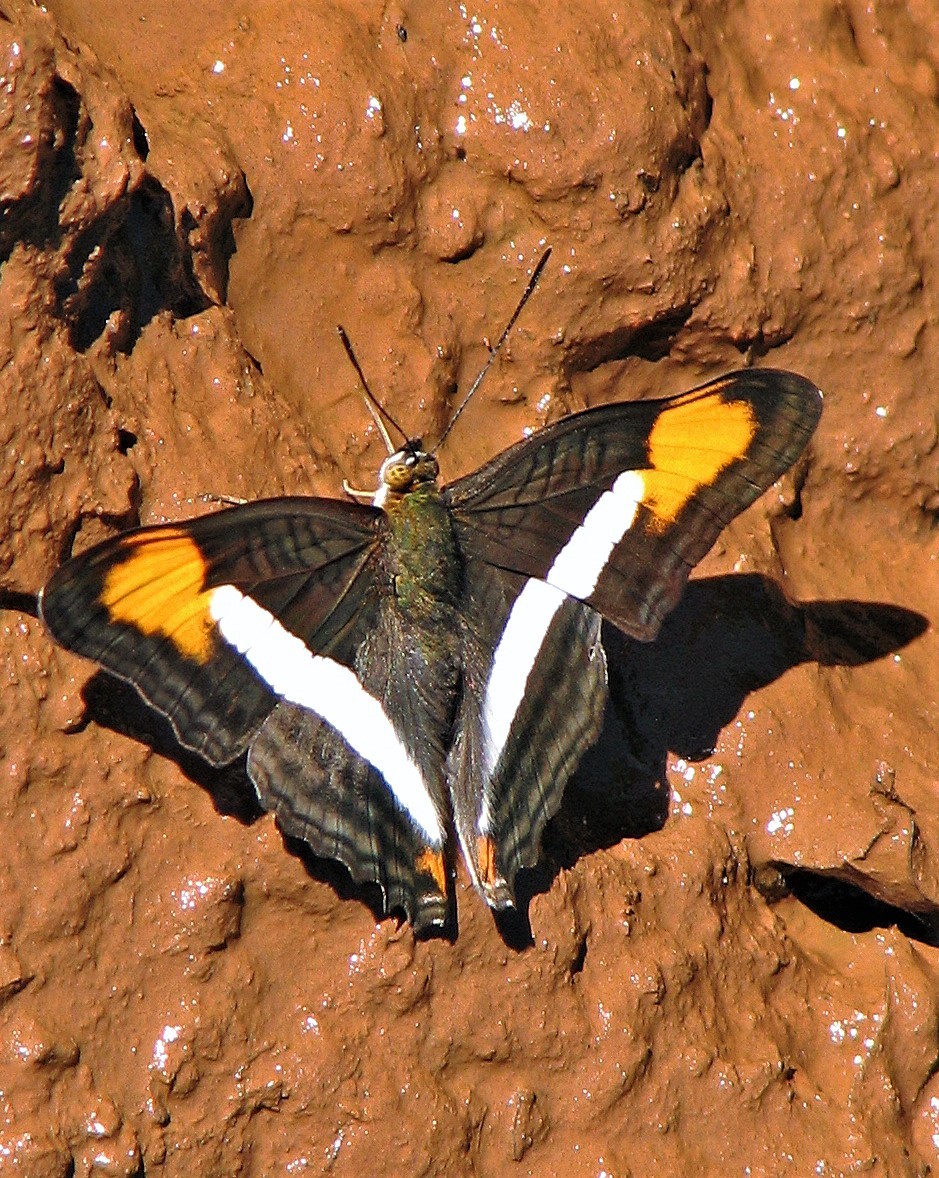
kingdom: Animalia
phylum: Arthropoda
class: Insecta
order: Lepidoptera
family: Nymphalidae
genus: Limenitis
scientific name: Limenitis epizygis
